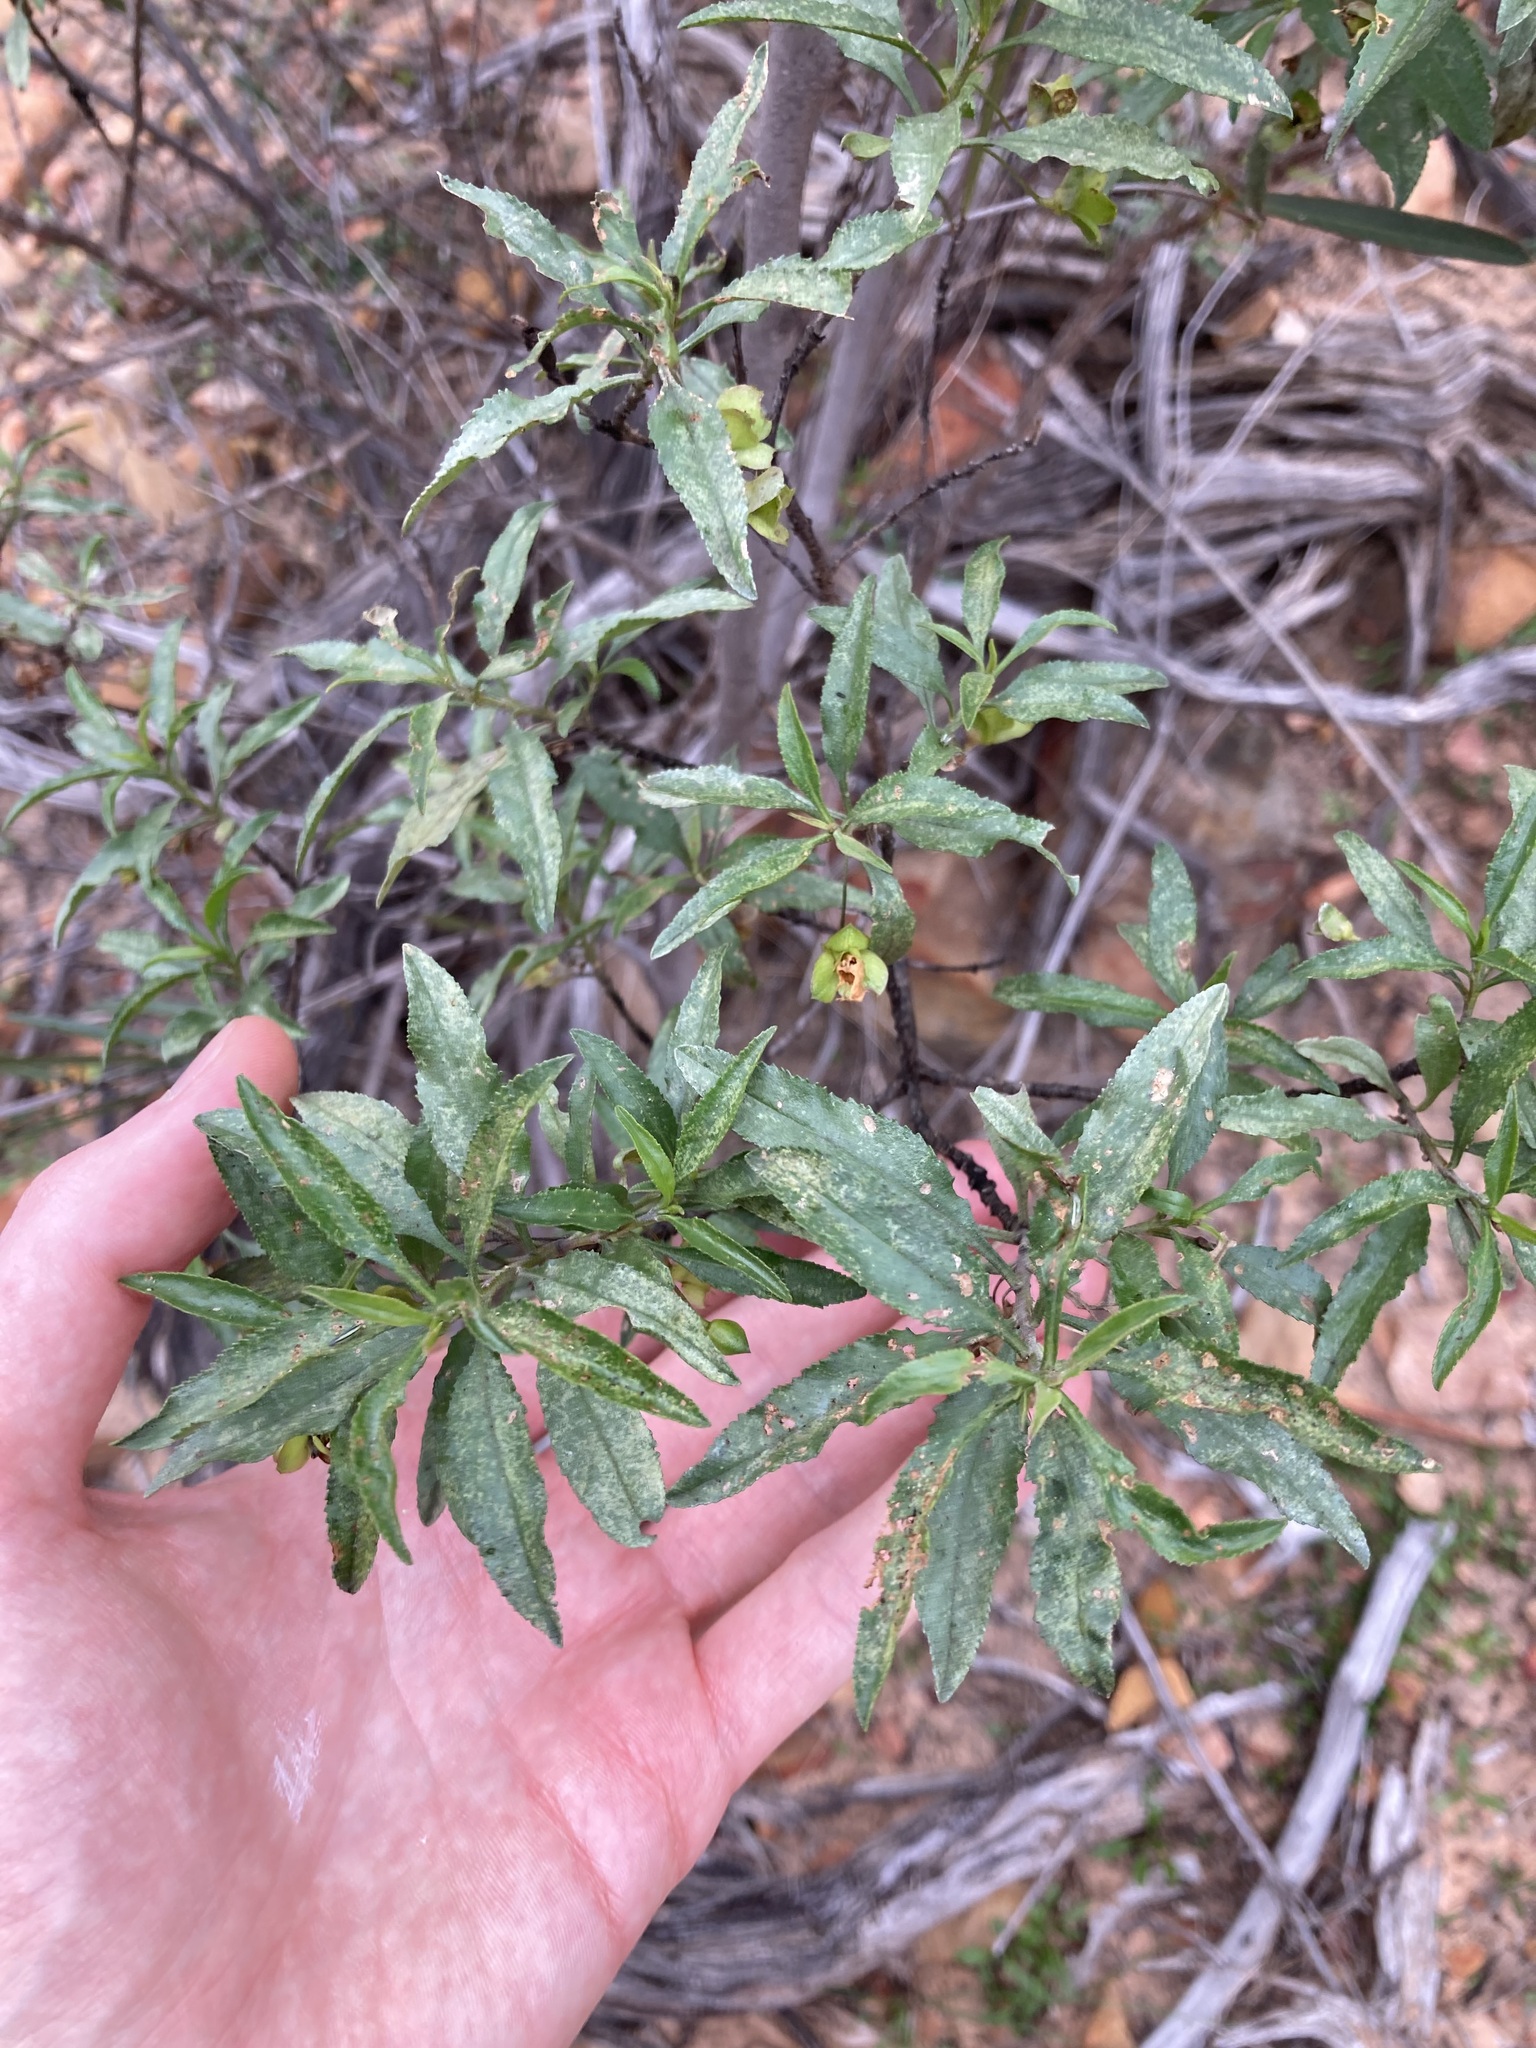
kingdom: Plantae
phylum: Tracheophyta
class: Magnoliopsida
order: Lamiales
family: Scrophulariaceae
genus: Eremophila
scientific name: Eremophila serrulata
